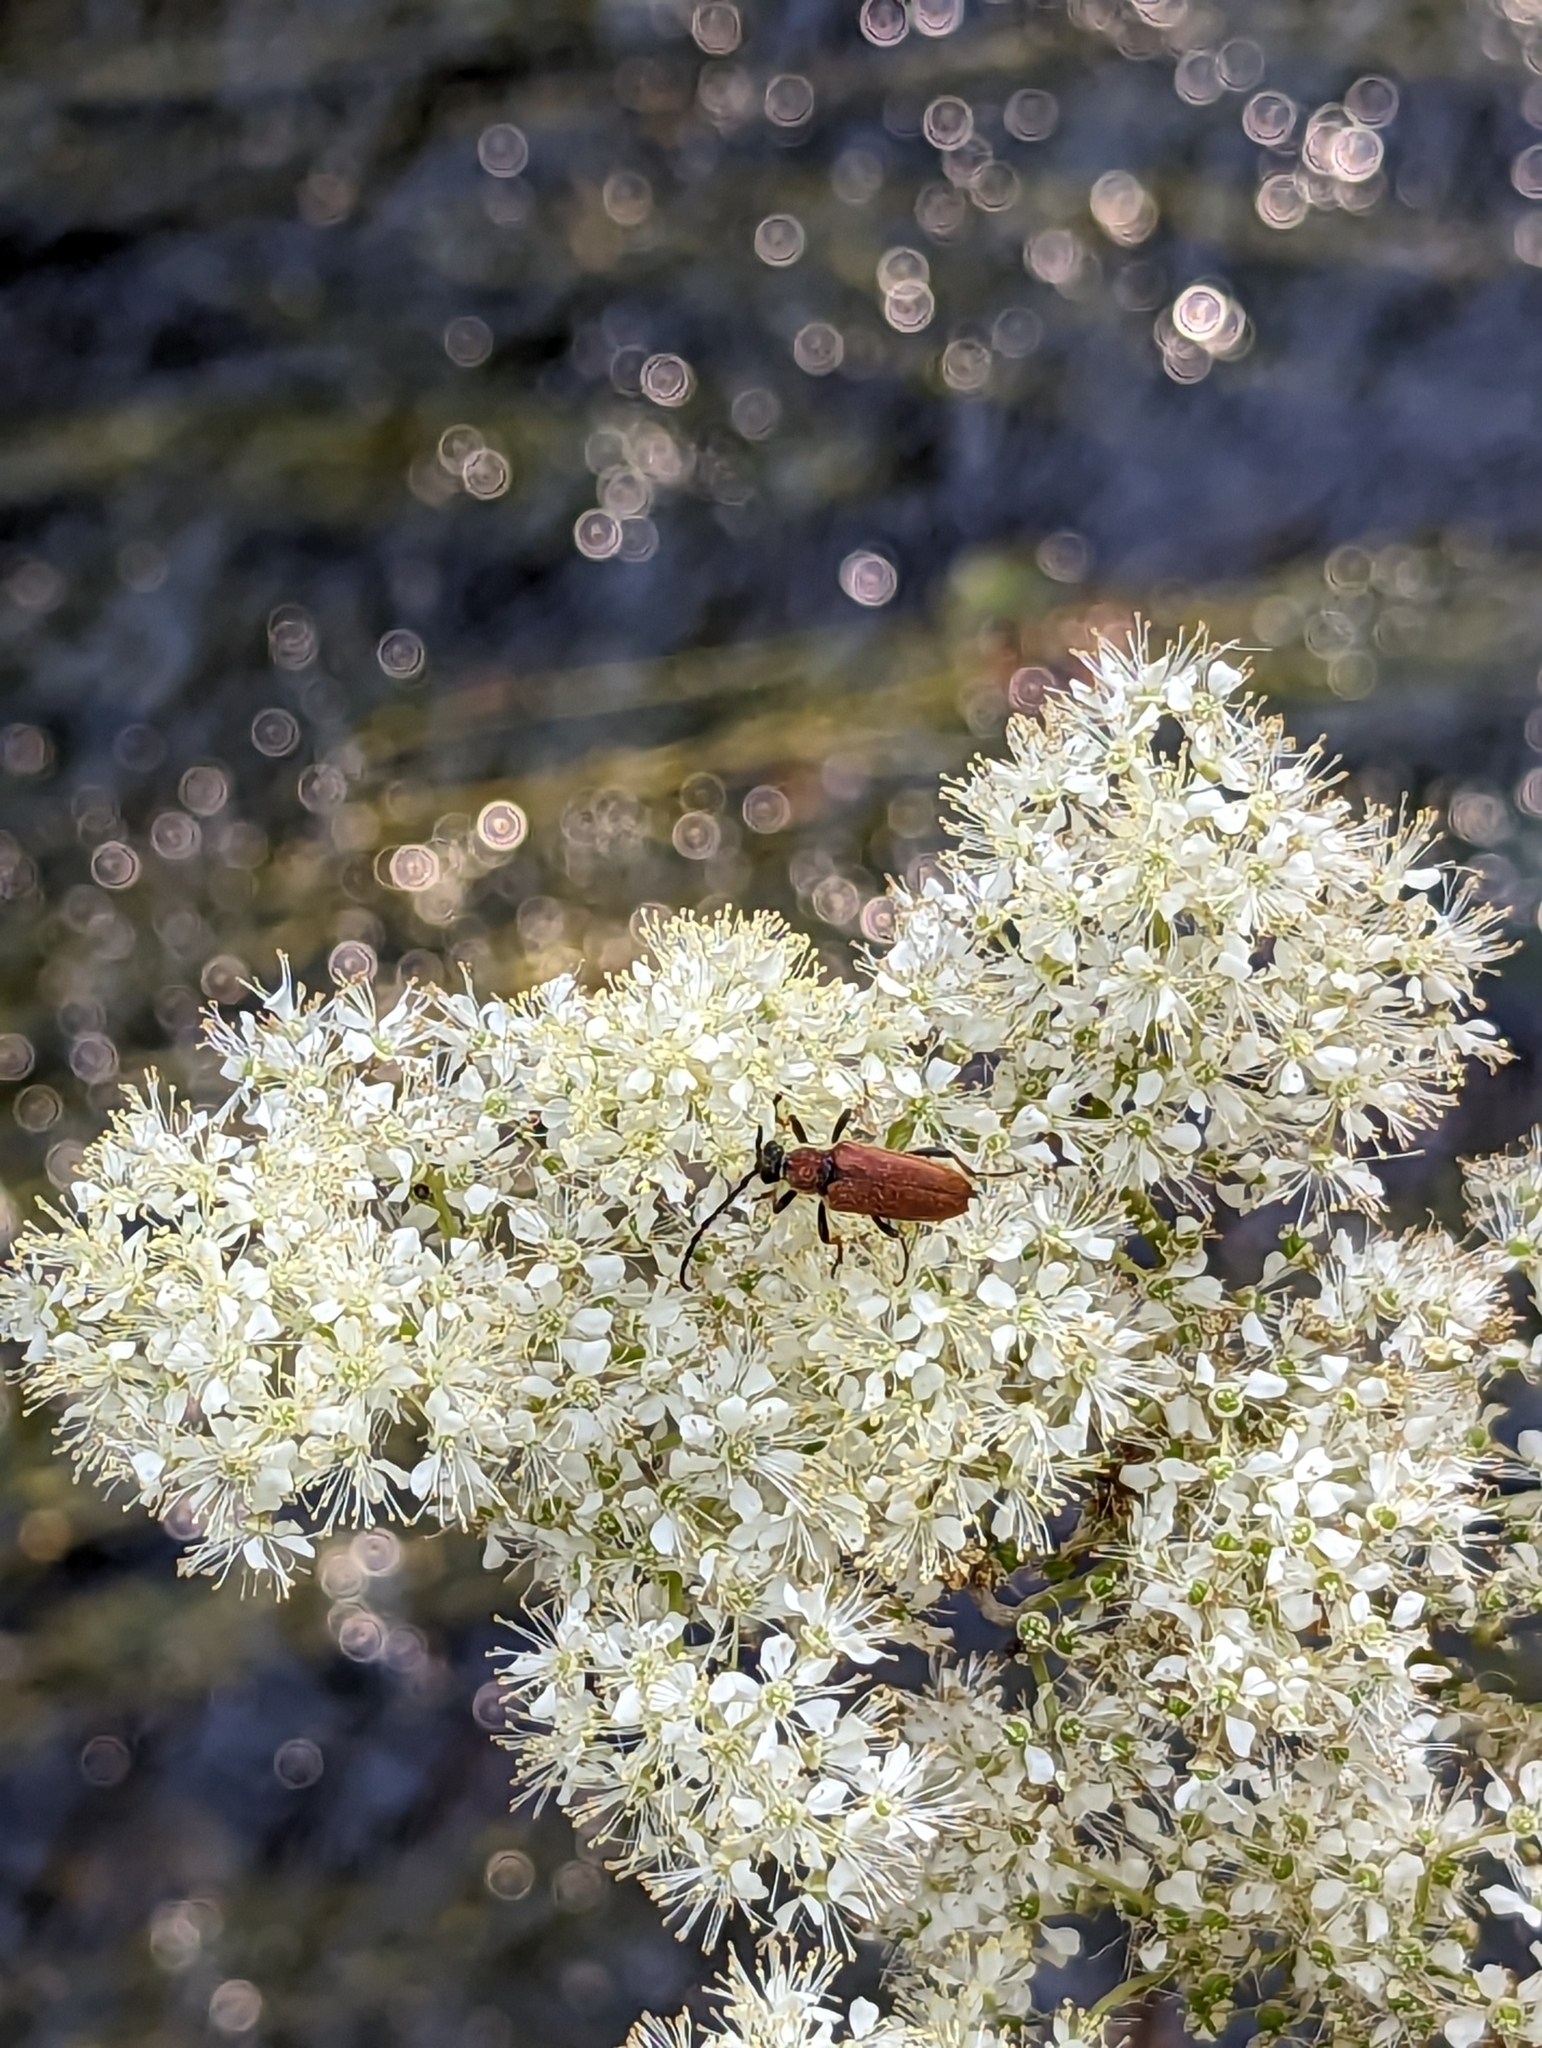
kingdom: Plantae
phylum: Tracheophyta
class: Magnoliopsida
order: Rosales
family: Rosaceae
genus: Filipendula
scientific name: Filipendula ulmaria
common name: Meadowsweet
